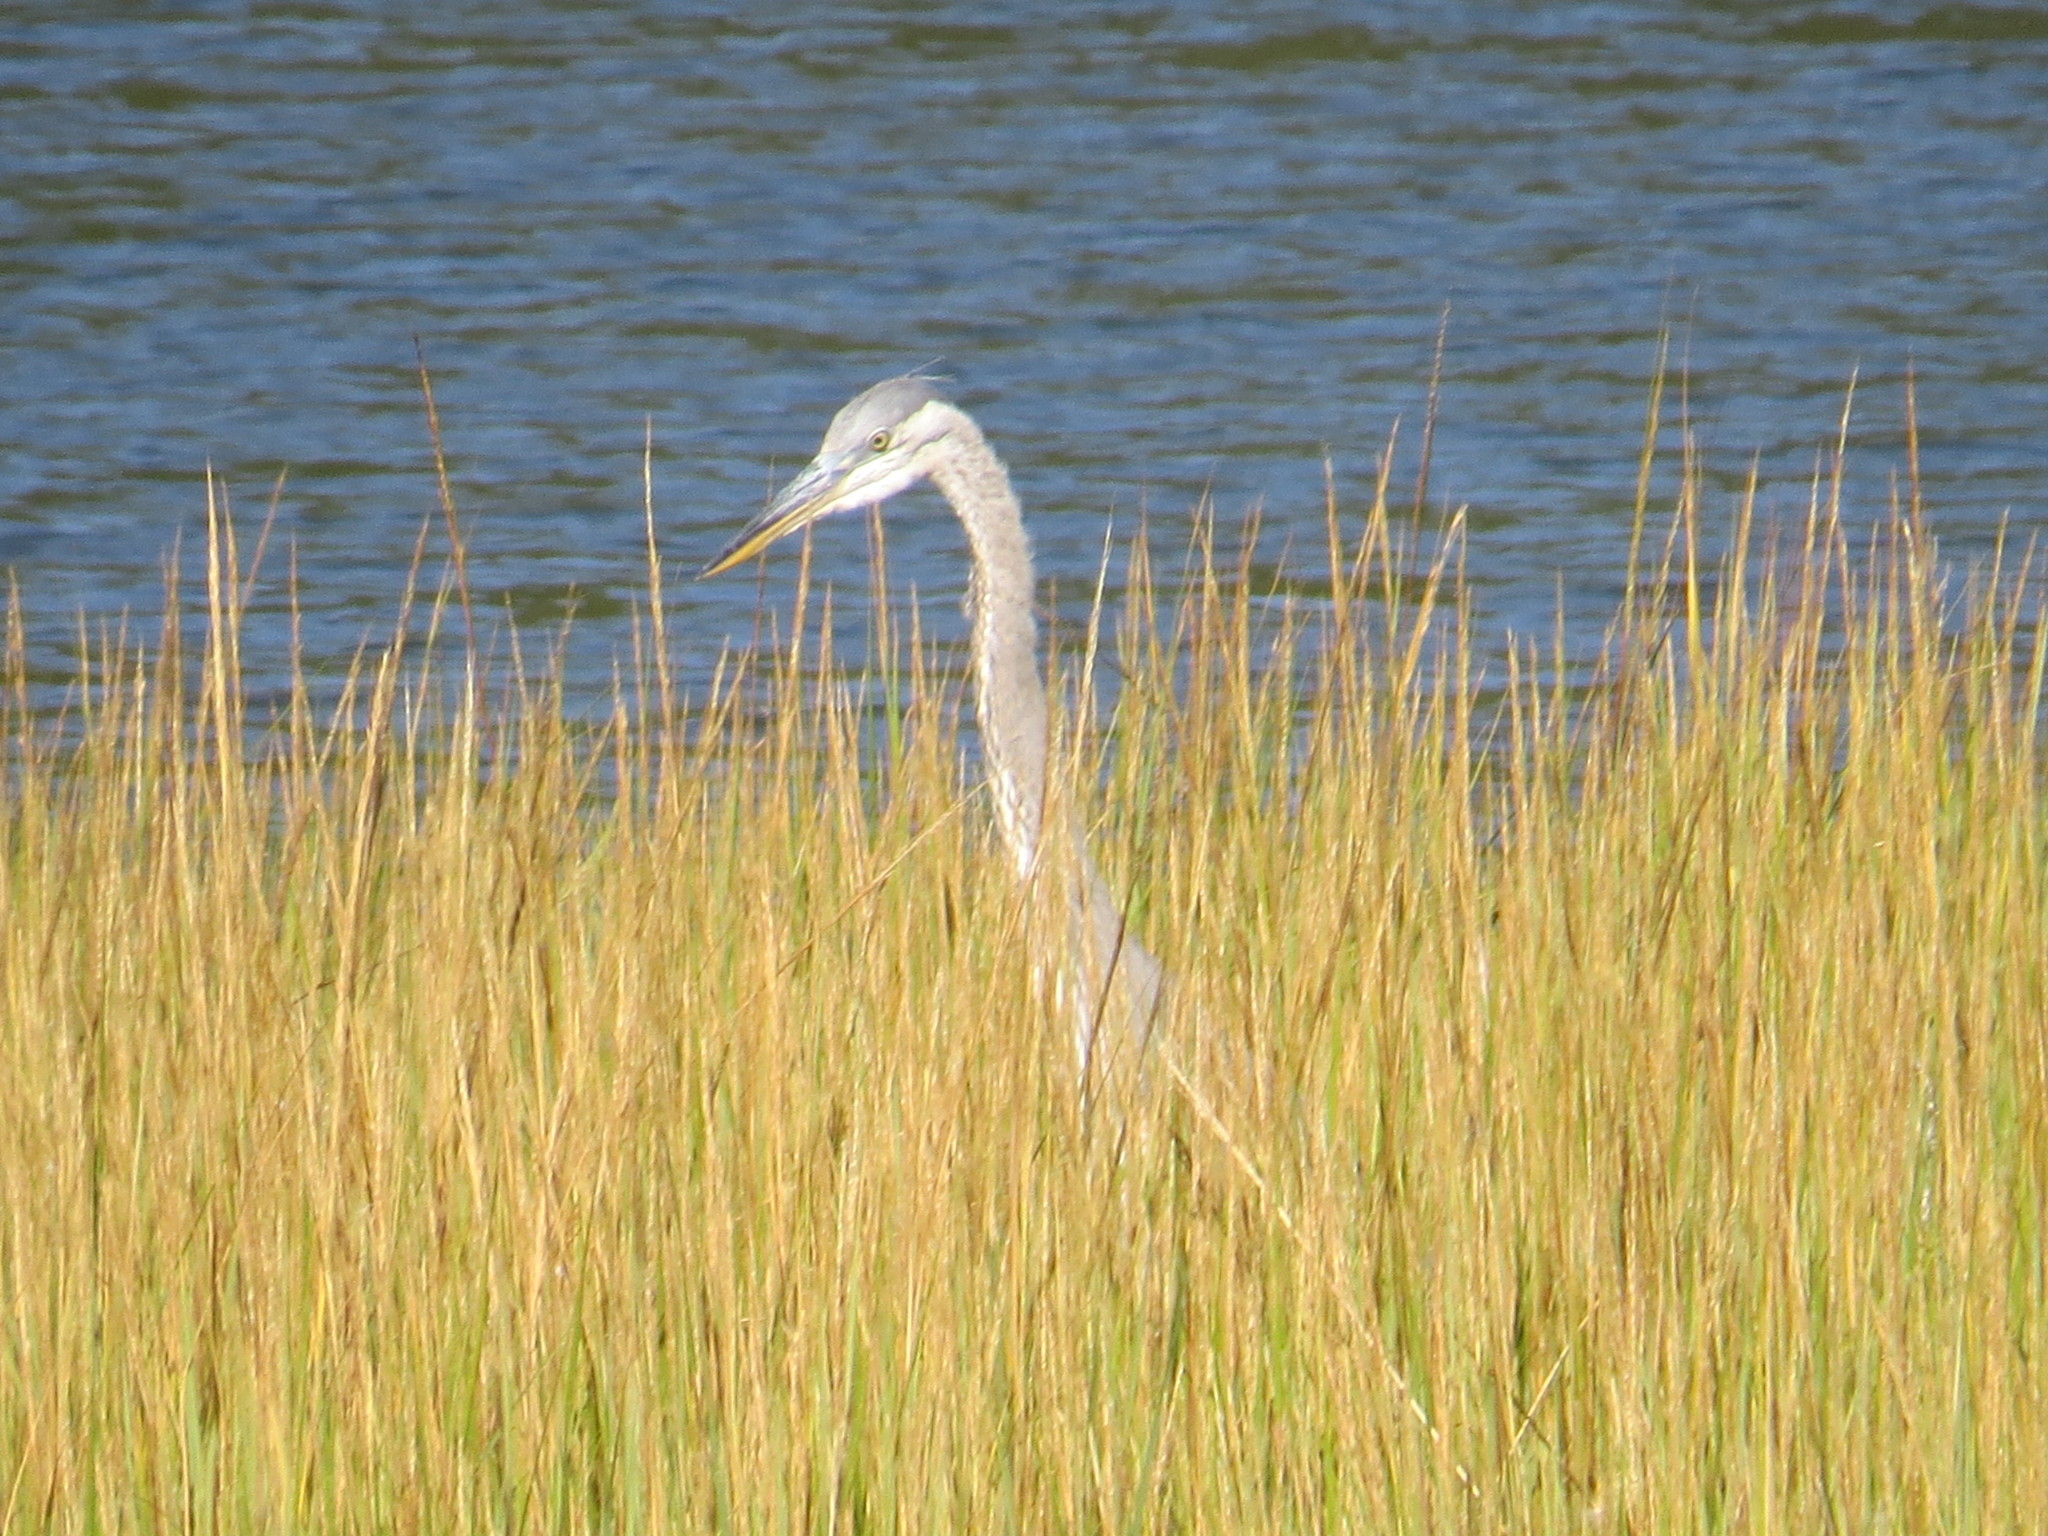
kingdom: Animalia
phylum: Chordata
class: Aves
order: Pelecaniformes
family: Ardeidae
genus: Ardea
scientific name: Ardea herodias
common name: Great blue heron
